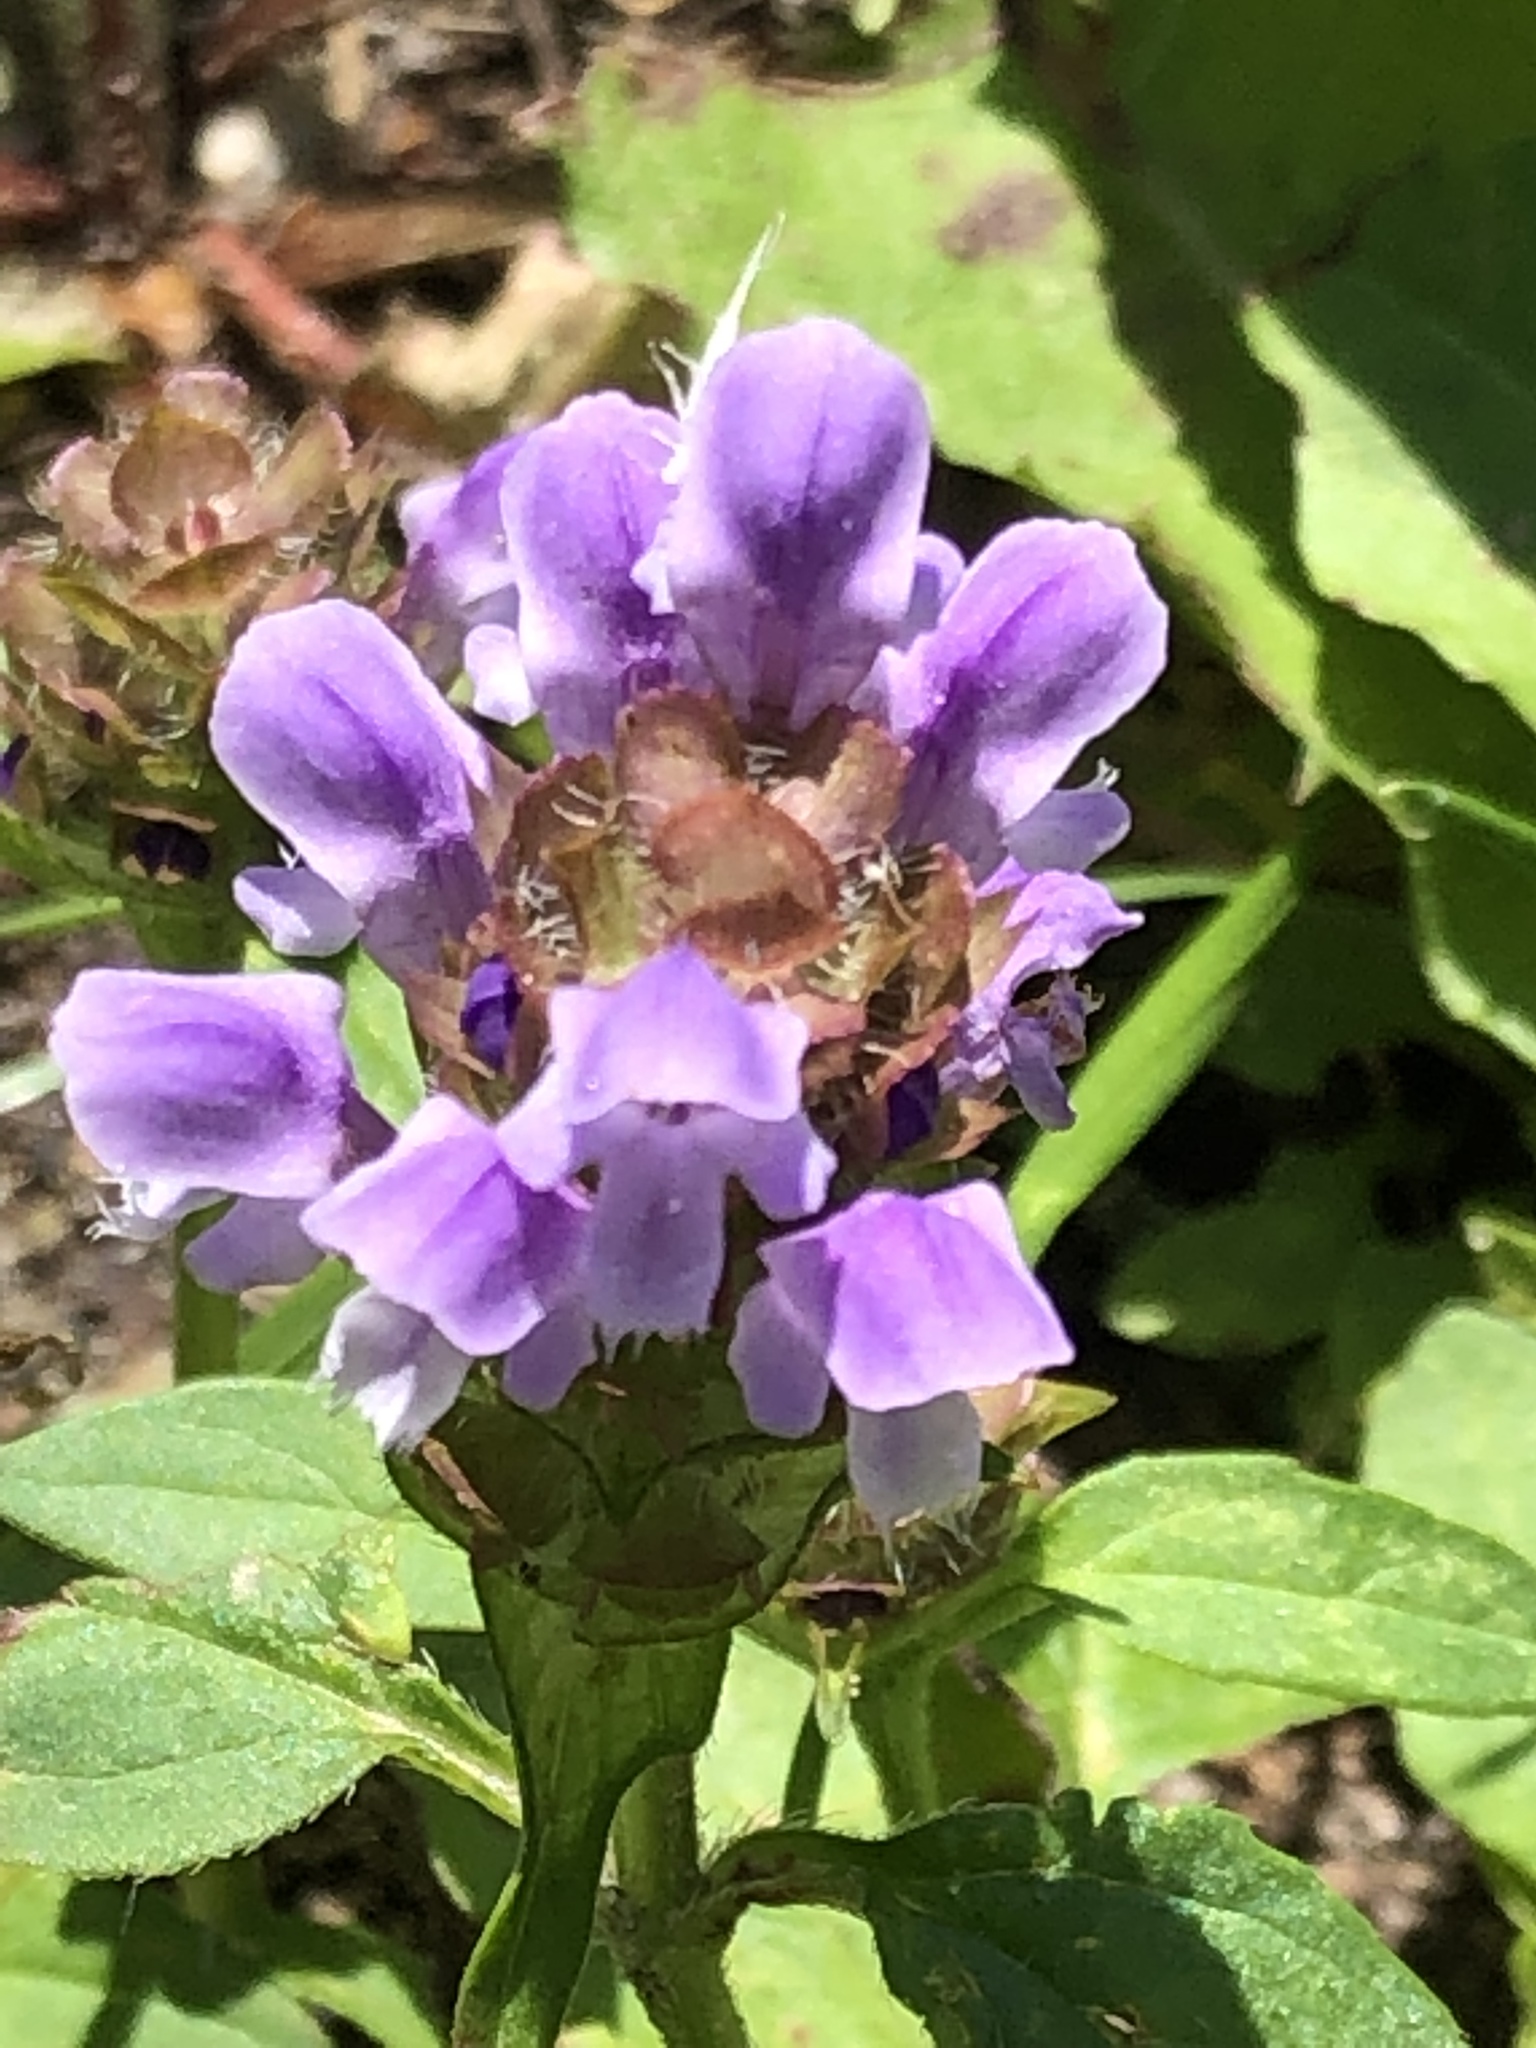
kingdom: Plantae
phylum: Tracheophyta
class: Magnoliopsida
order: Lamiales
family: Lamiaceae
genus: Prunella
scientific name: Prunella vulgaris
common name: Heal-all
